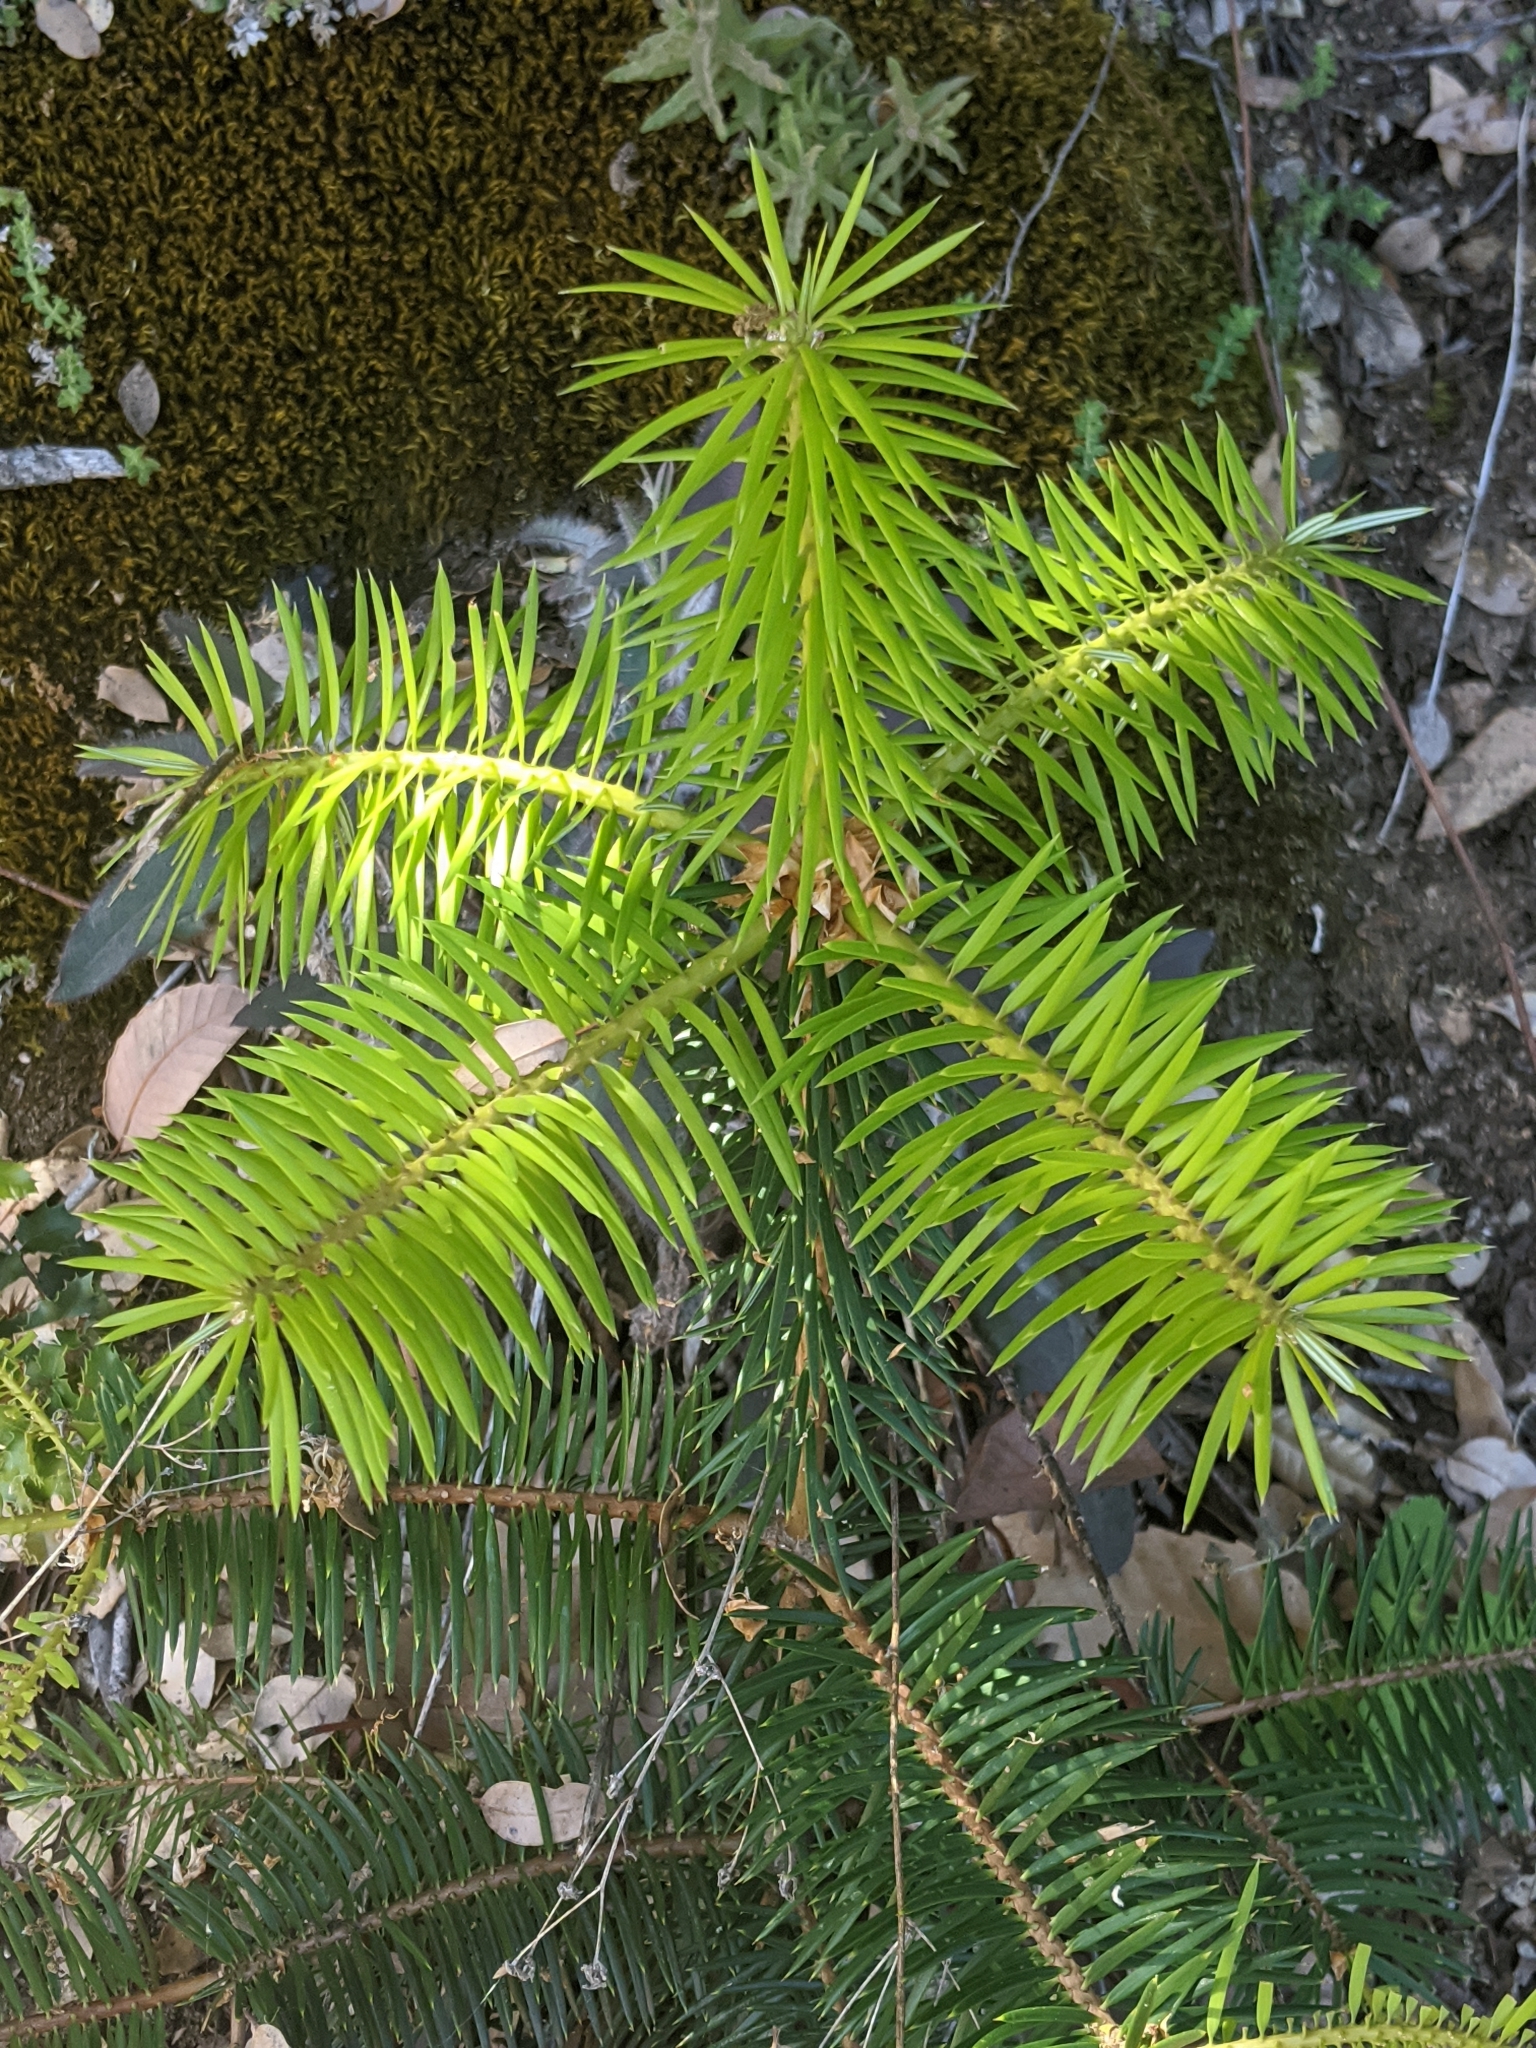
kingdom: Plantae
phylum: Tracheophyta
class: Pinopsida
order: Pinales
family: Pinaceae
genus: Abies
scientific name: Abies bracteata
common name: Bristlecone fir
